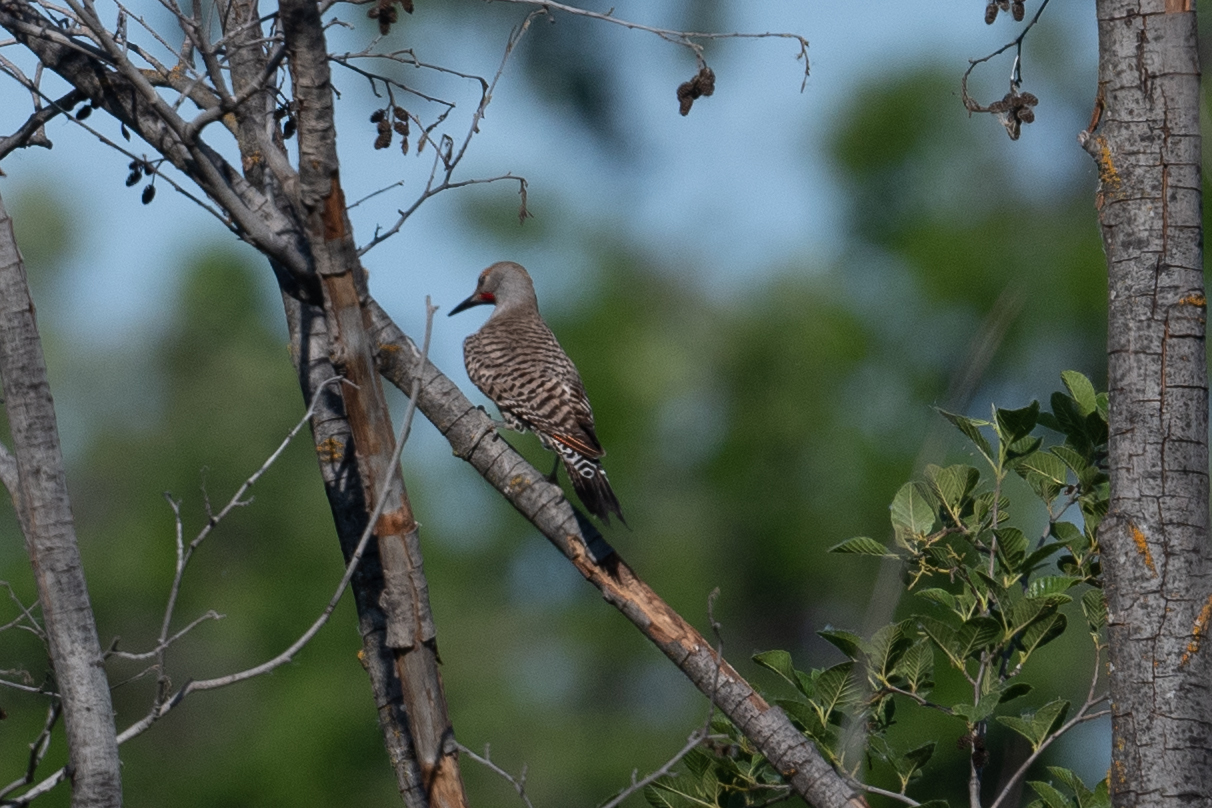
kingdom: Animalia
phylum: Chordata
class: Aves
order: Piciformes
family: Picidae
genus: Colaptes
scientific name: Colaptes auratus
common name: Northern flicker
